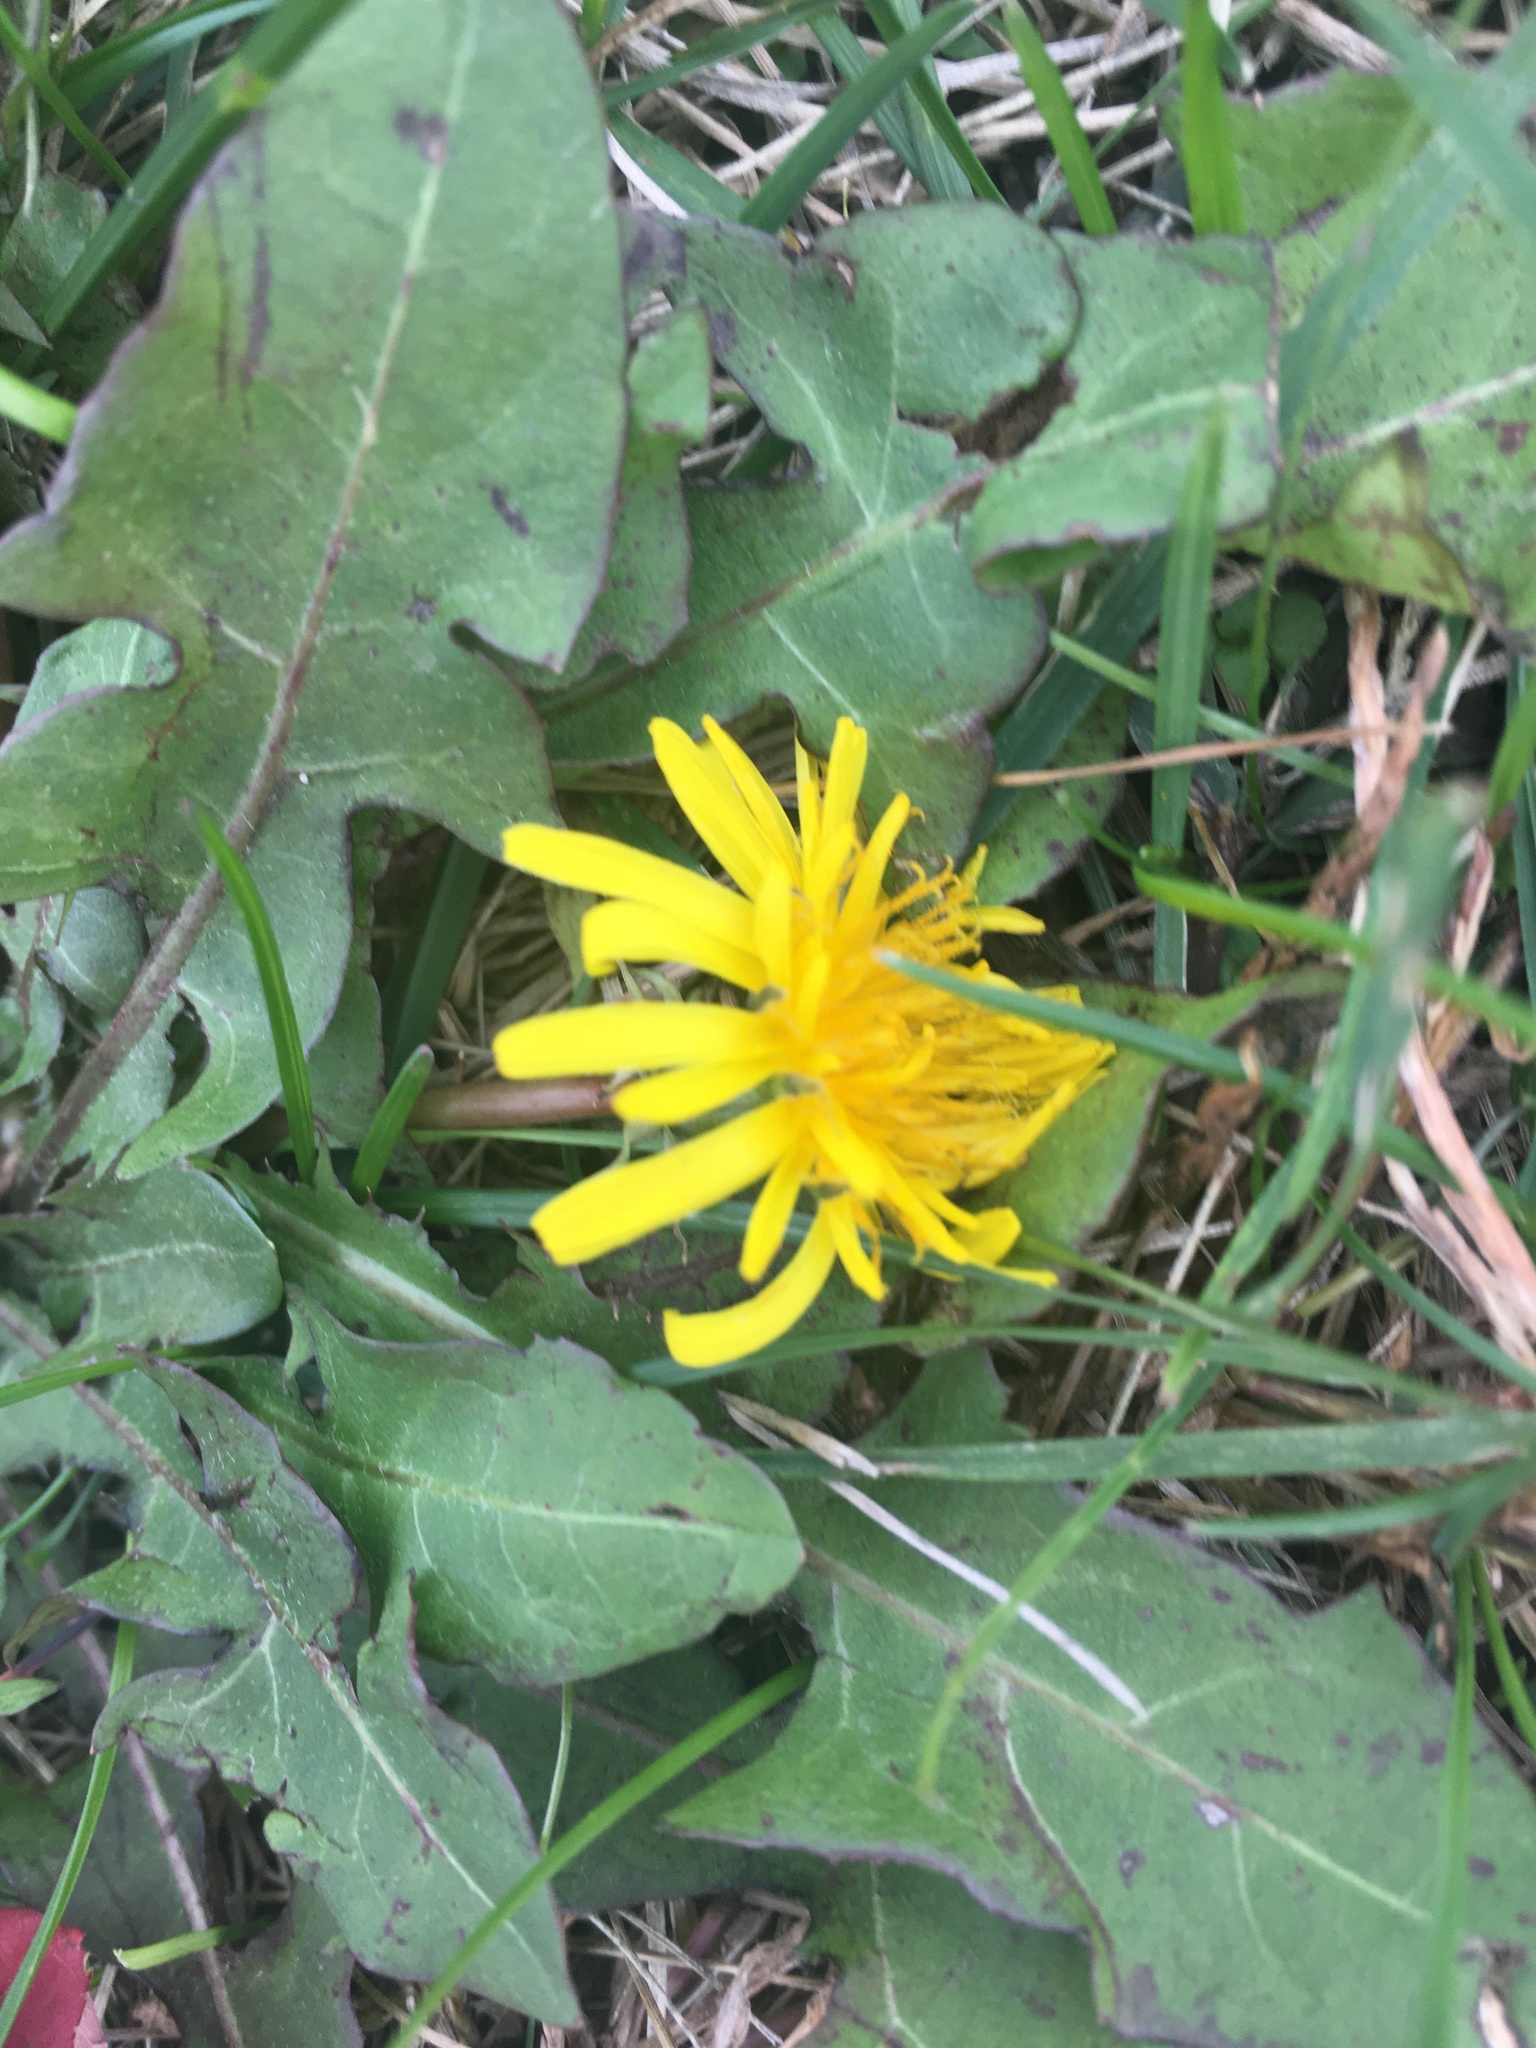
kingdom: Plantae
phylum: Tracheophyta
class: Magnoliopsida
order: Asterales
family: Asteraceae
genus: Taraxacum
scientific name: Taraxacum officinale
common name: Common dandelion
